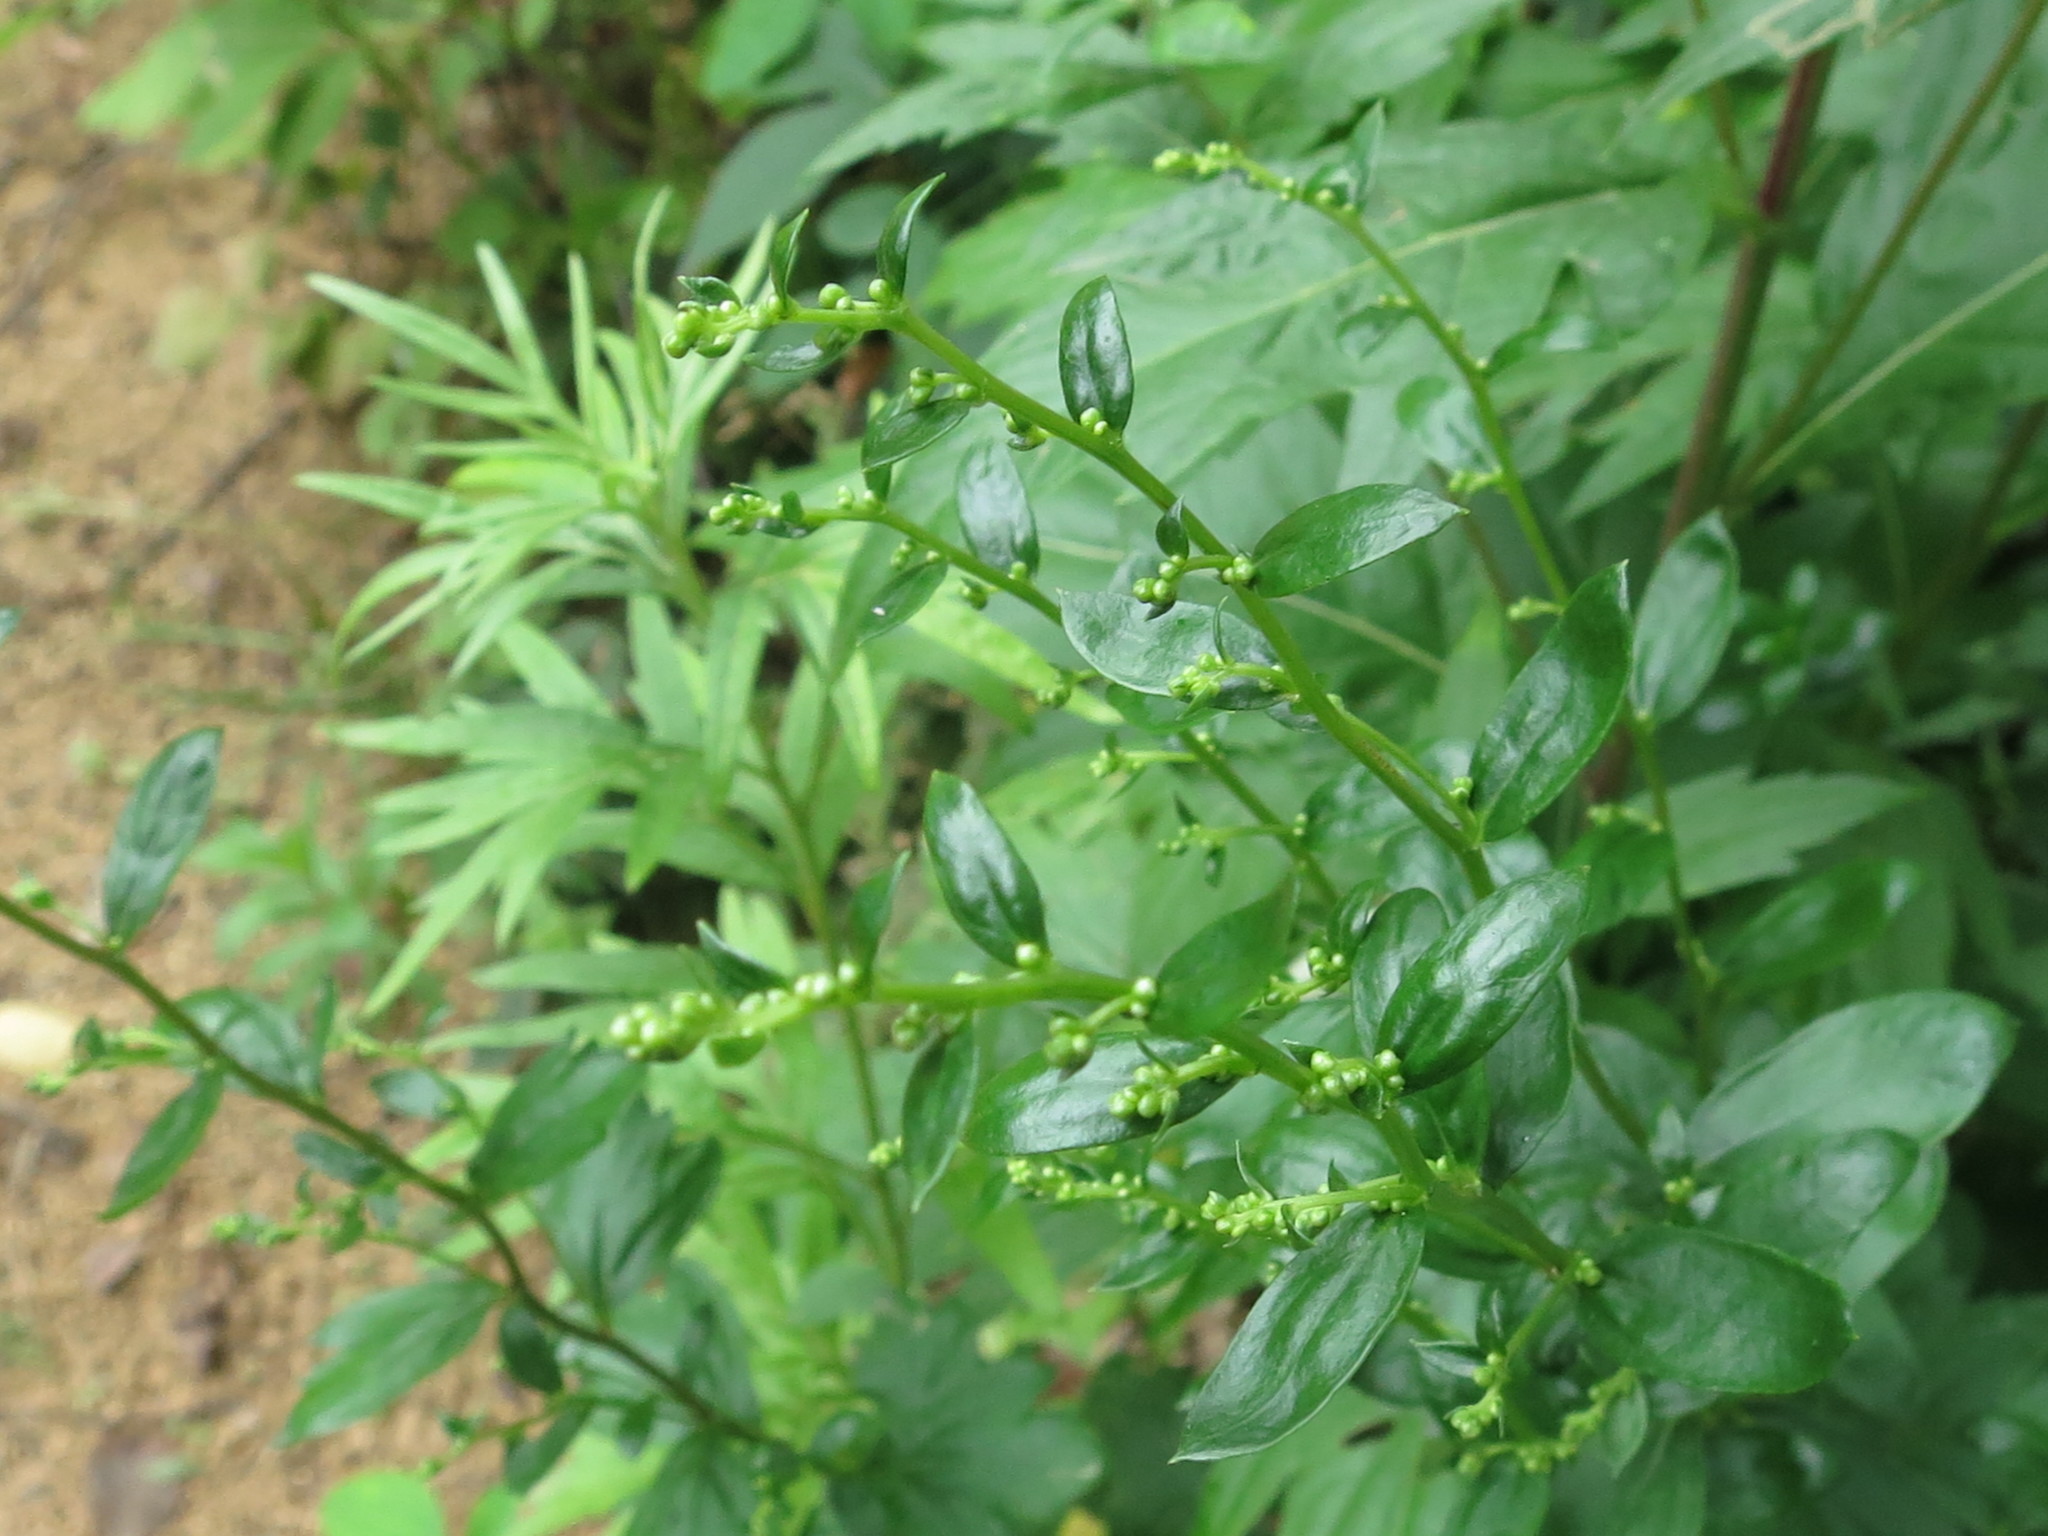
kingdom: Plantae
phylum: Tracheophyta
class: Magnoliopsida
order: Asterales
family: Asteraceae
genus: Artemisia
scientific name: Artemisia keiskeana
